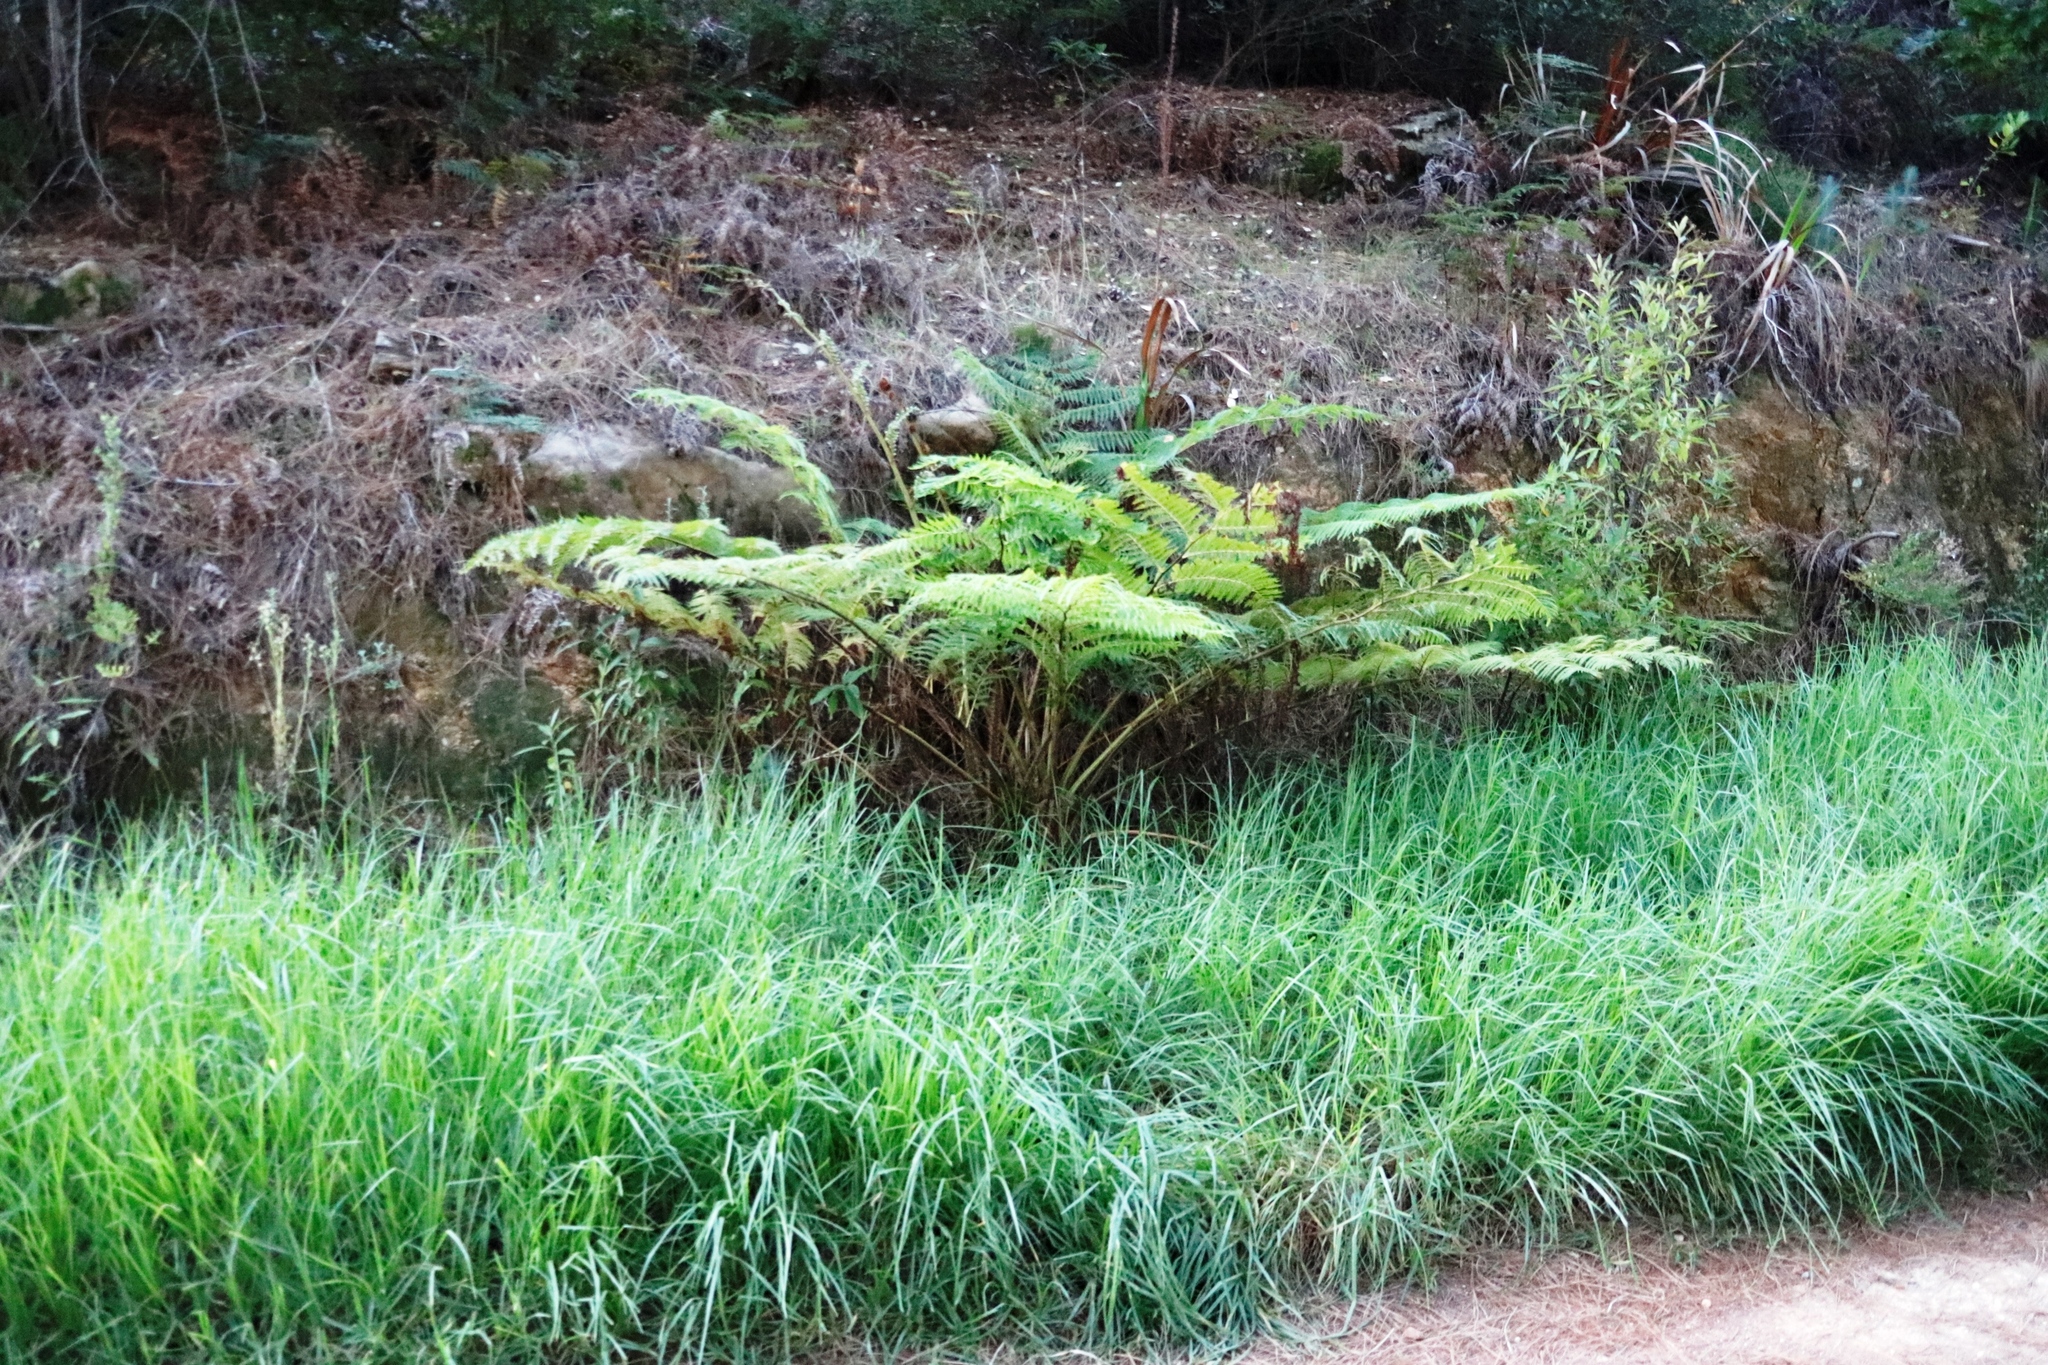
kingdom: Plantae
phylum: Tracheophyta
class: Polypodiopsida
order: Cyatheales
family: Cyatheaceae
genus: Sphaeropteris
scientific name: Sphaeropteris cooperi
